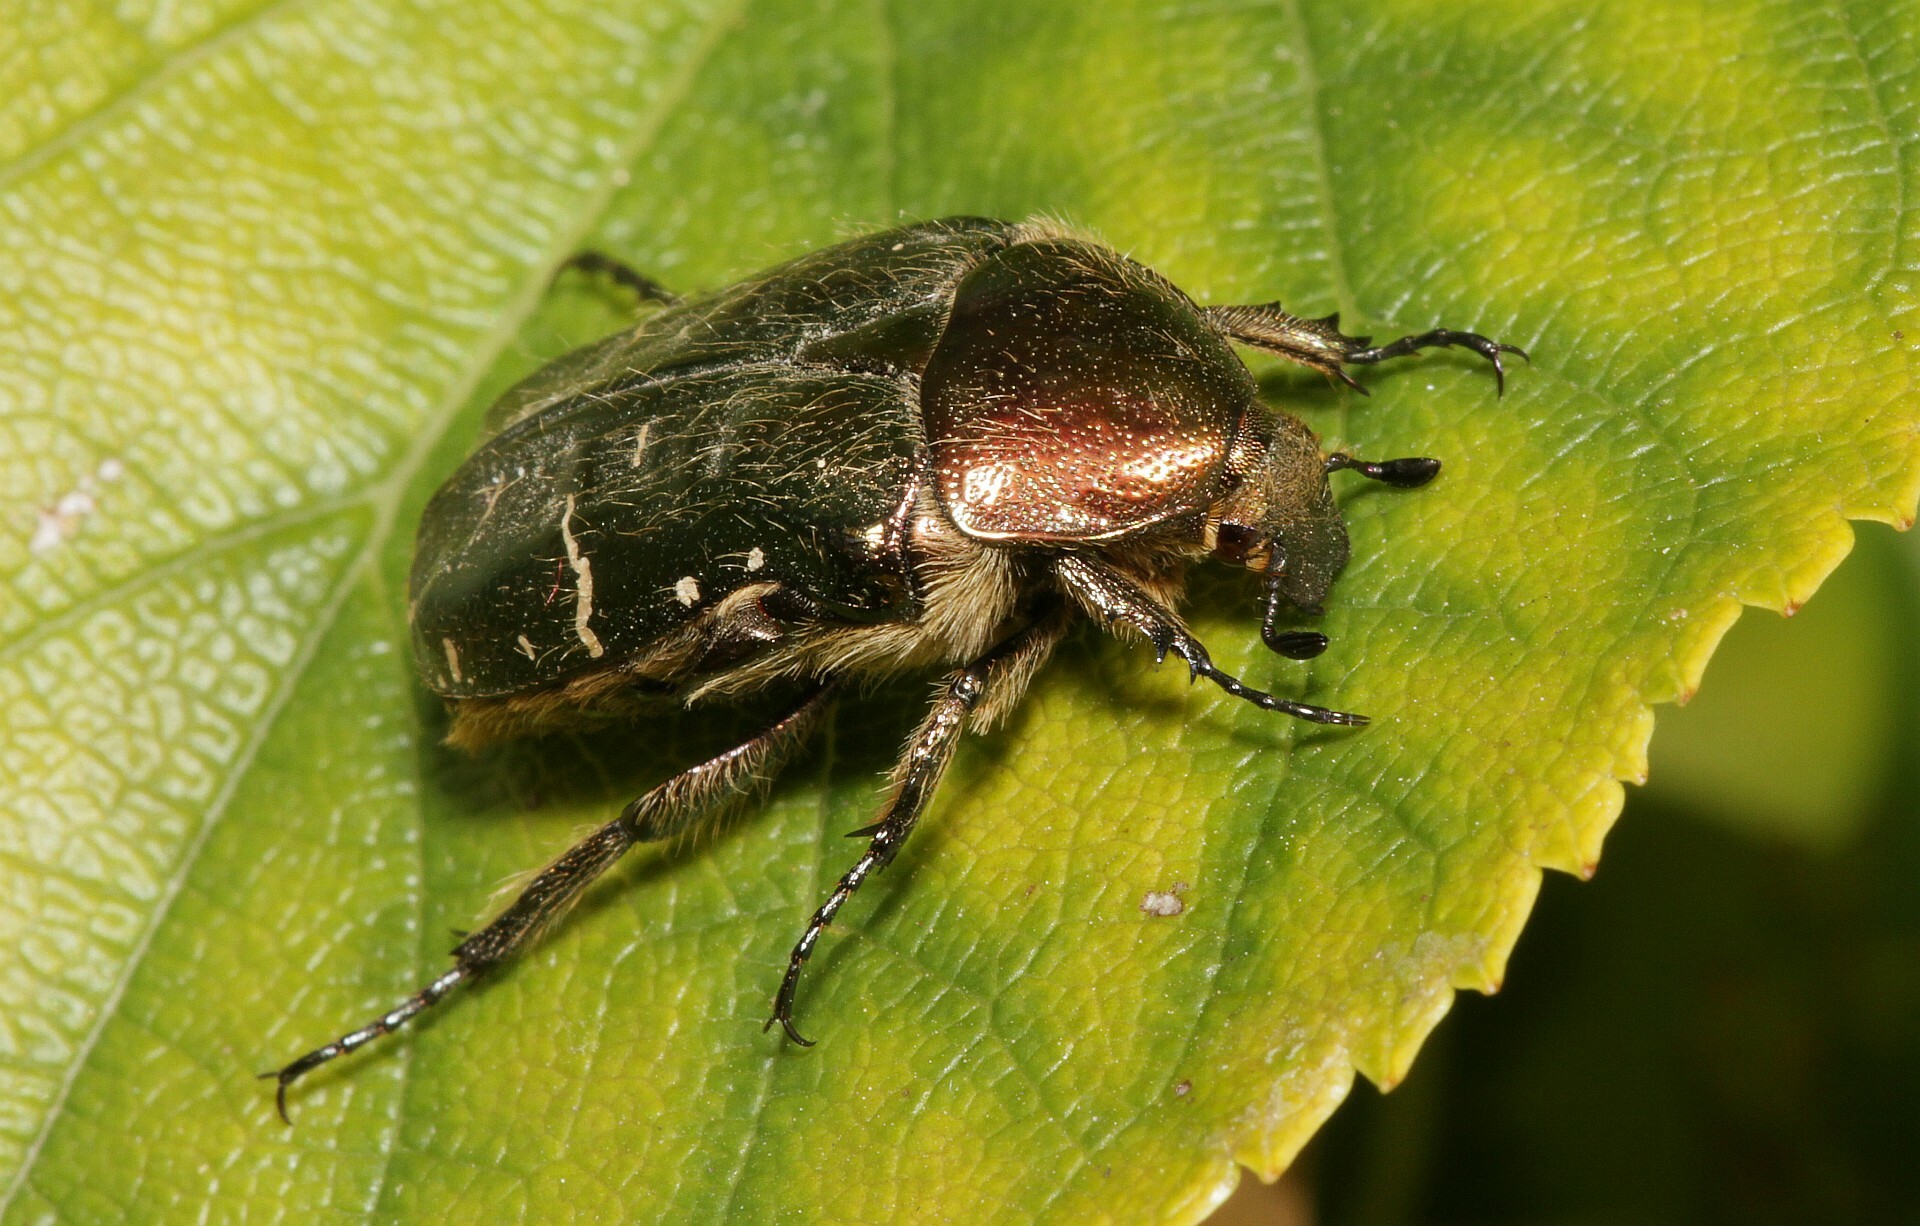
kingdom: Animalia
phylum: Arthropoda
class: Insecta
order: Coleoptera
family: Scarabaeidae
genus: Cetonia
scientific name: Cetonia aurata
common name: Rose chafer
